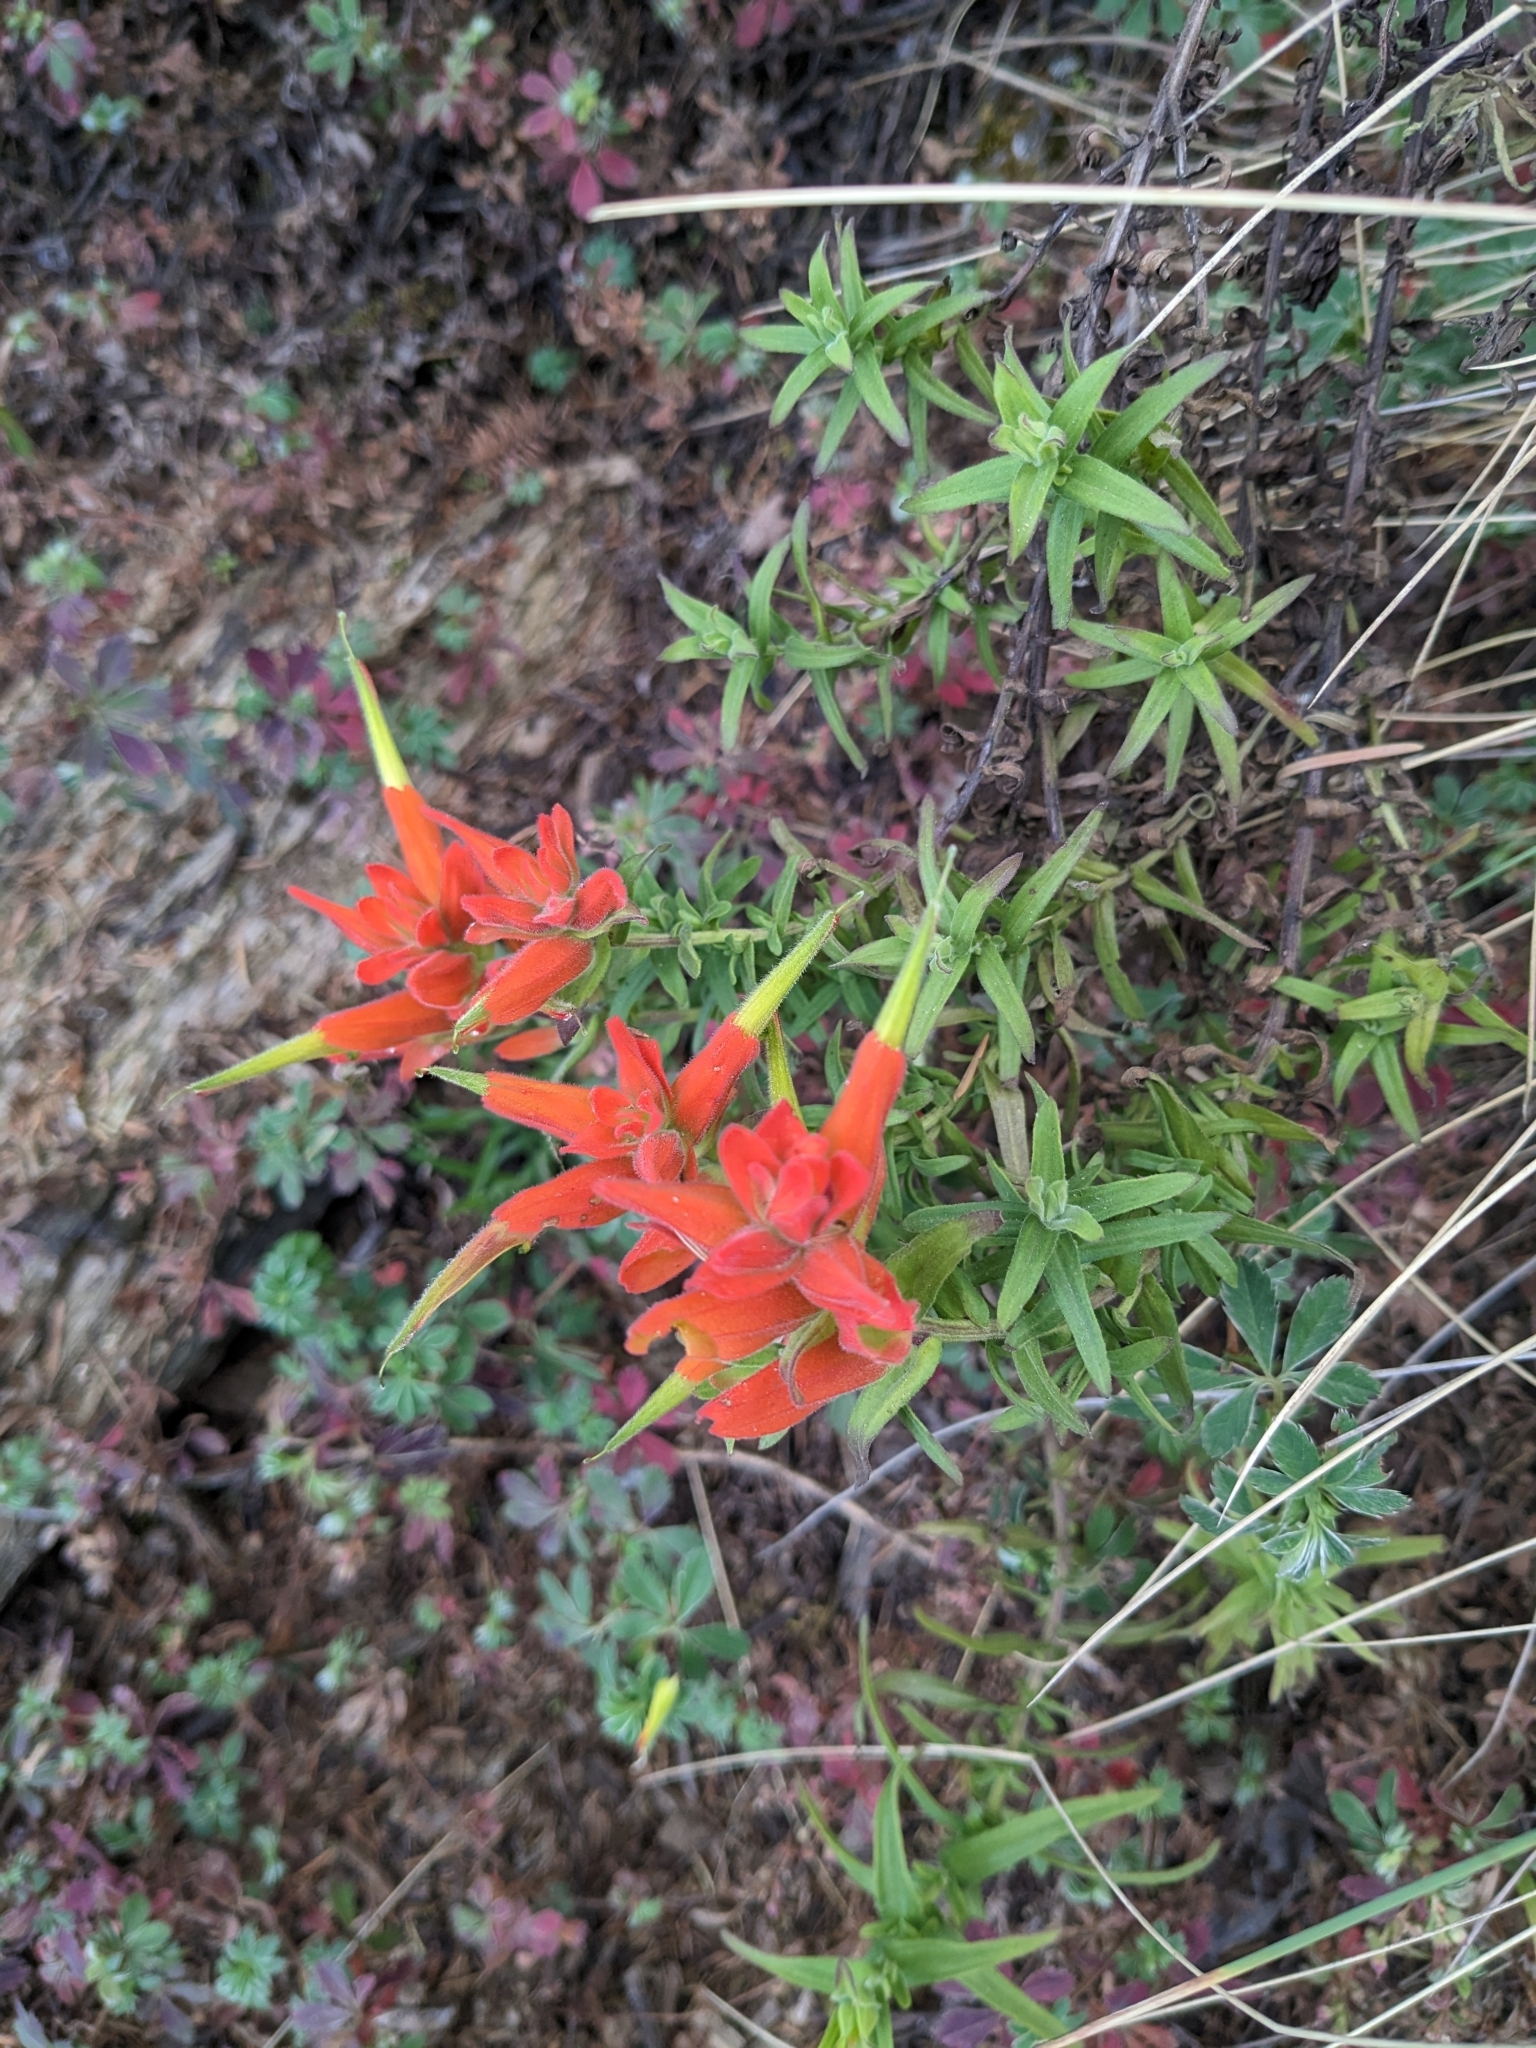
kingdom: Plantae
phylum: Tracheophyta
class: Magnoliopsida
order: Lamiales
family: Orobanchaceae
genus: Castilleja
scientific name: Castilleja tenuiflora
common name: Santa catalina indian paintbrush
